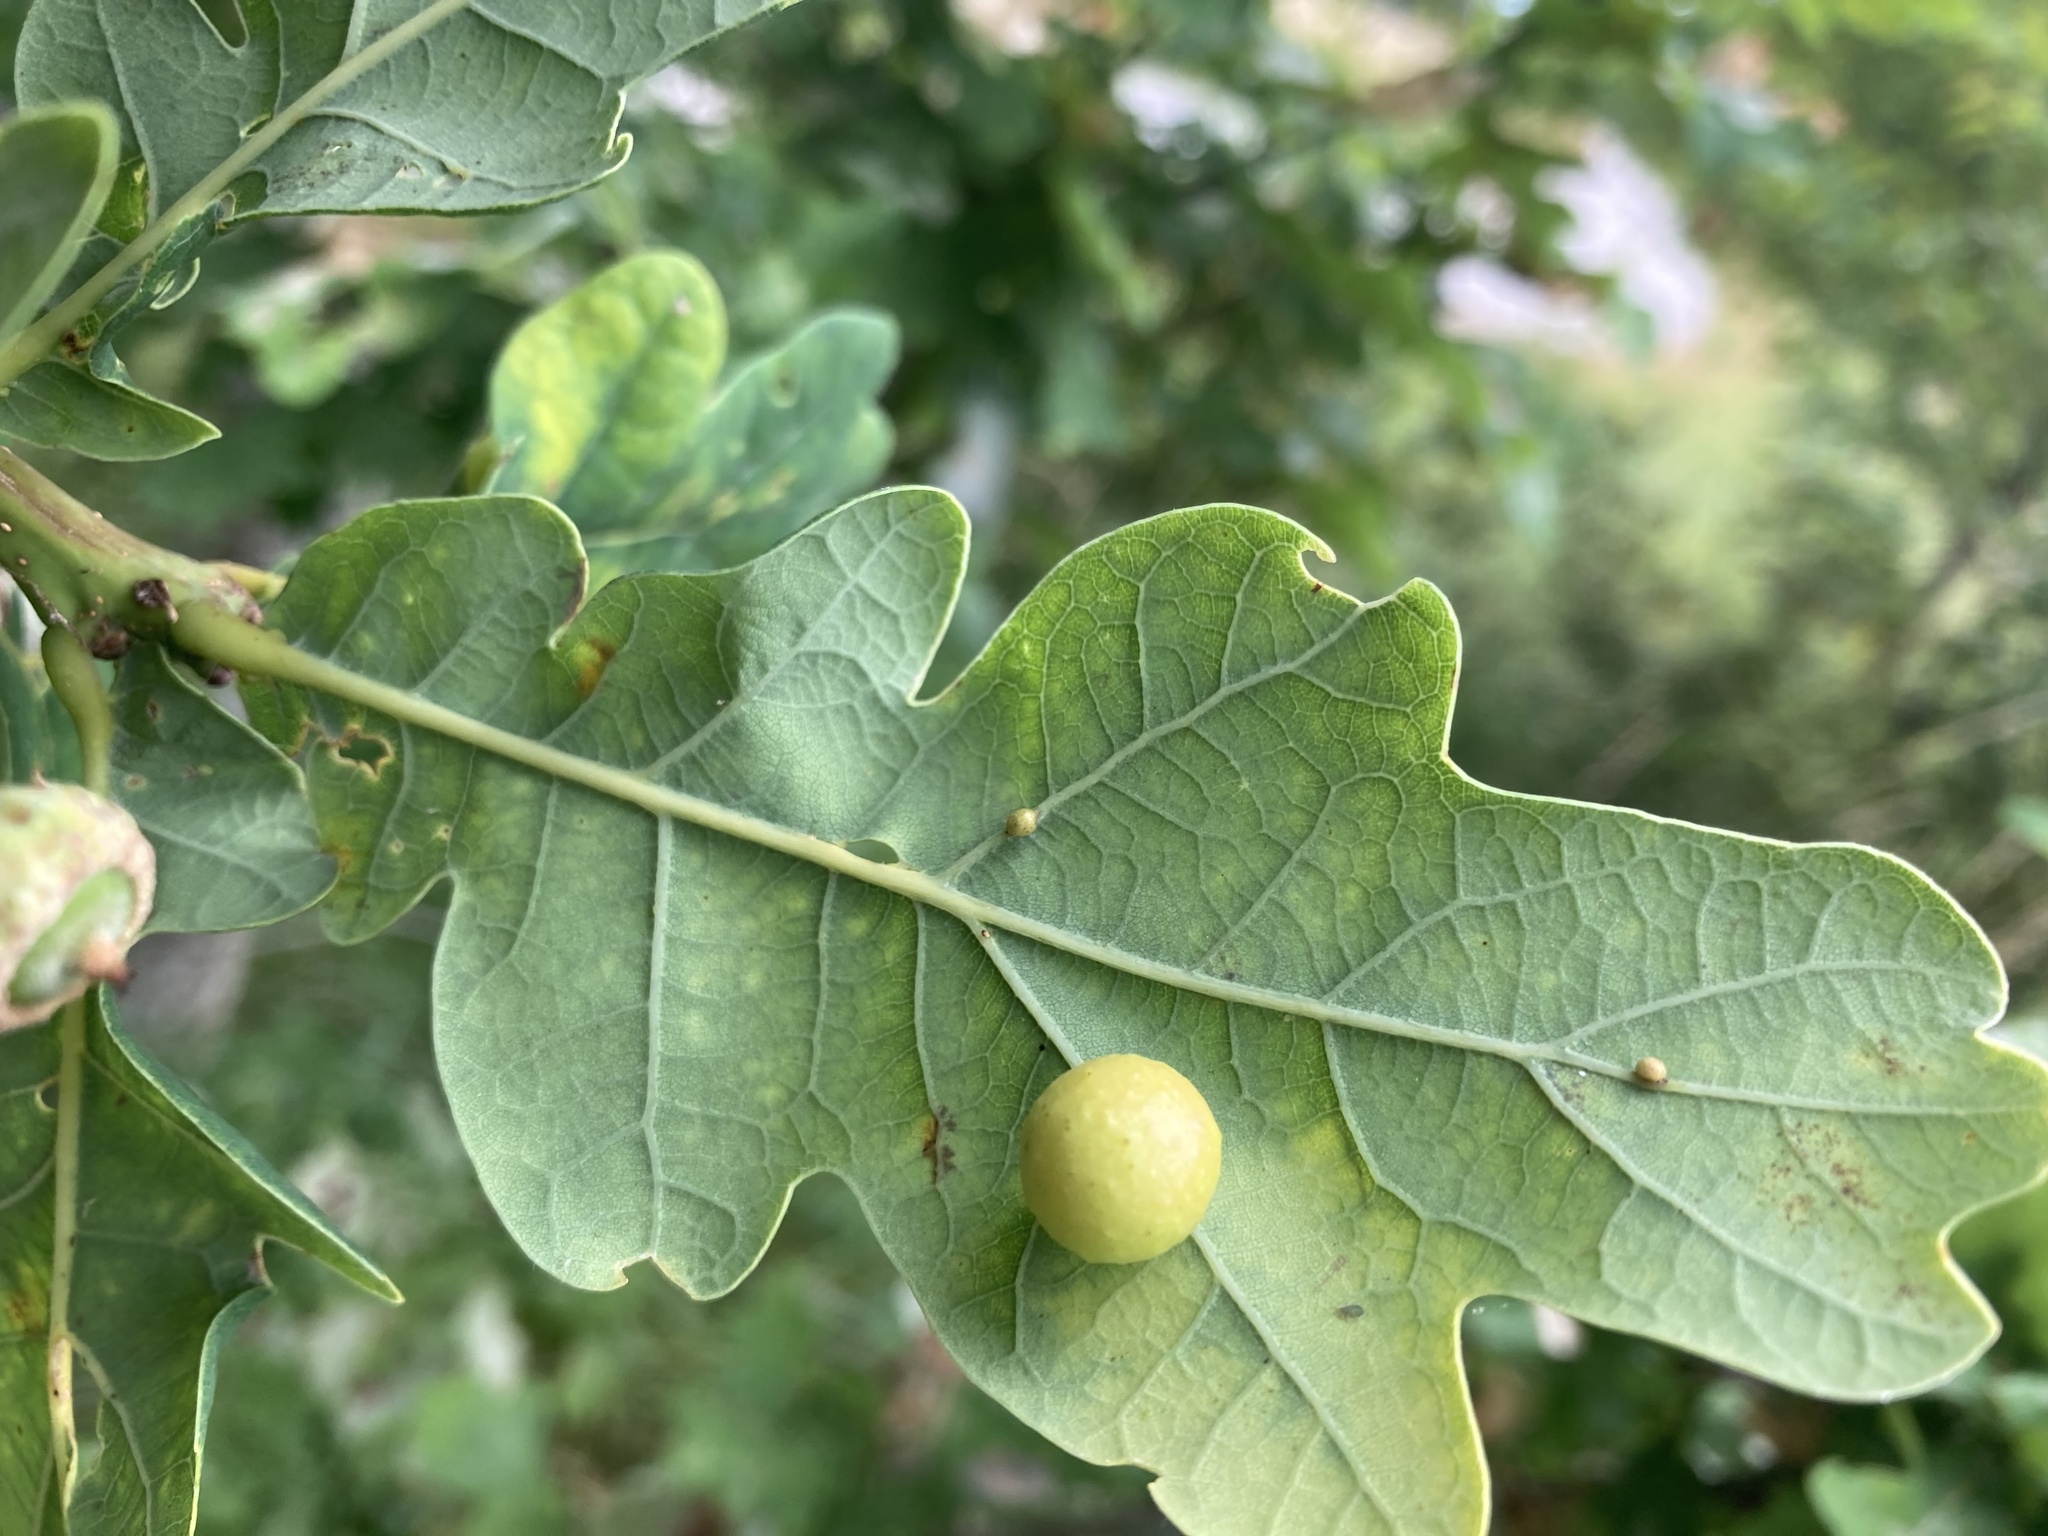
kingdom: Animalia
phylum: Arthropoda
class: Insecta
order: Hymenoptera
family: Cynipidae
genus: Cynips
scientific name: Cynips quercusfolii
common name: Cherry gall
